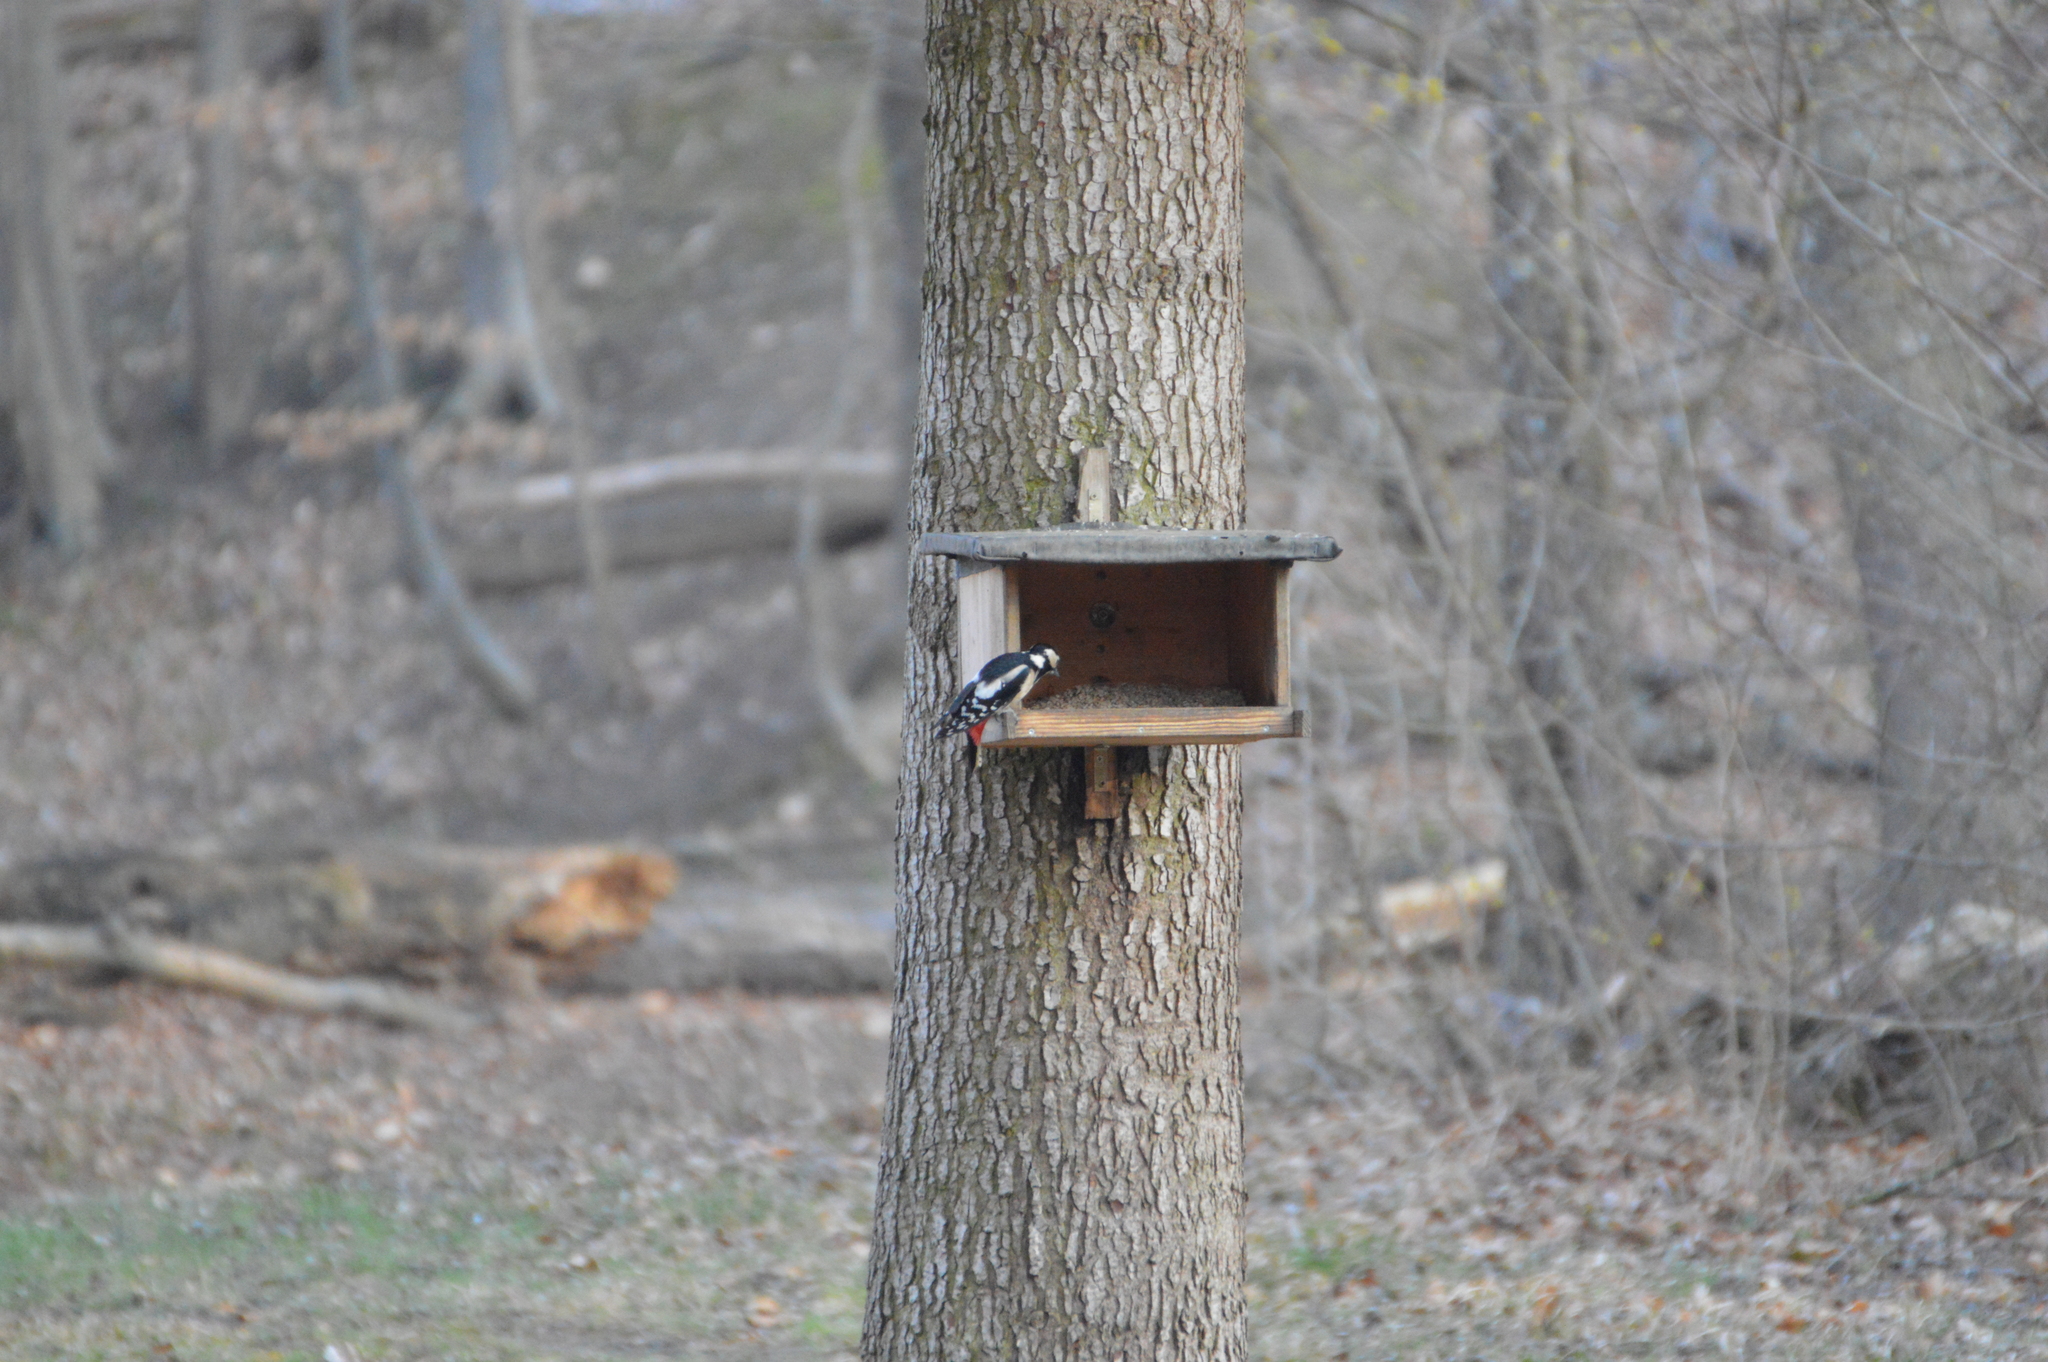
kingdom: Animalia
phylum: Chordata
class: Aves
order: Piciformes
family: Picidae
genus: Dendrocopos
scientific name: Dendrocopos major
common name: Great spotted woodpecker
